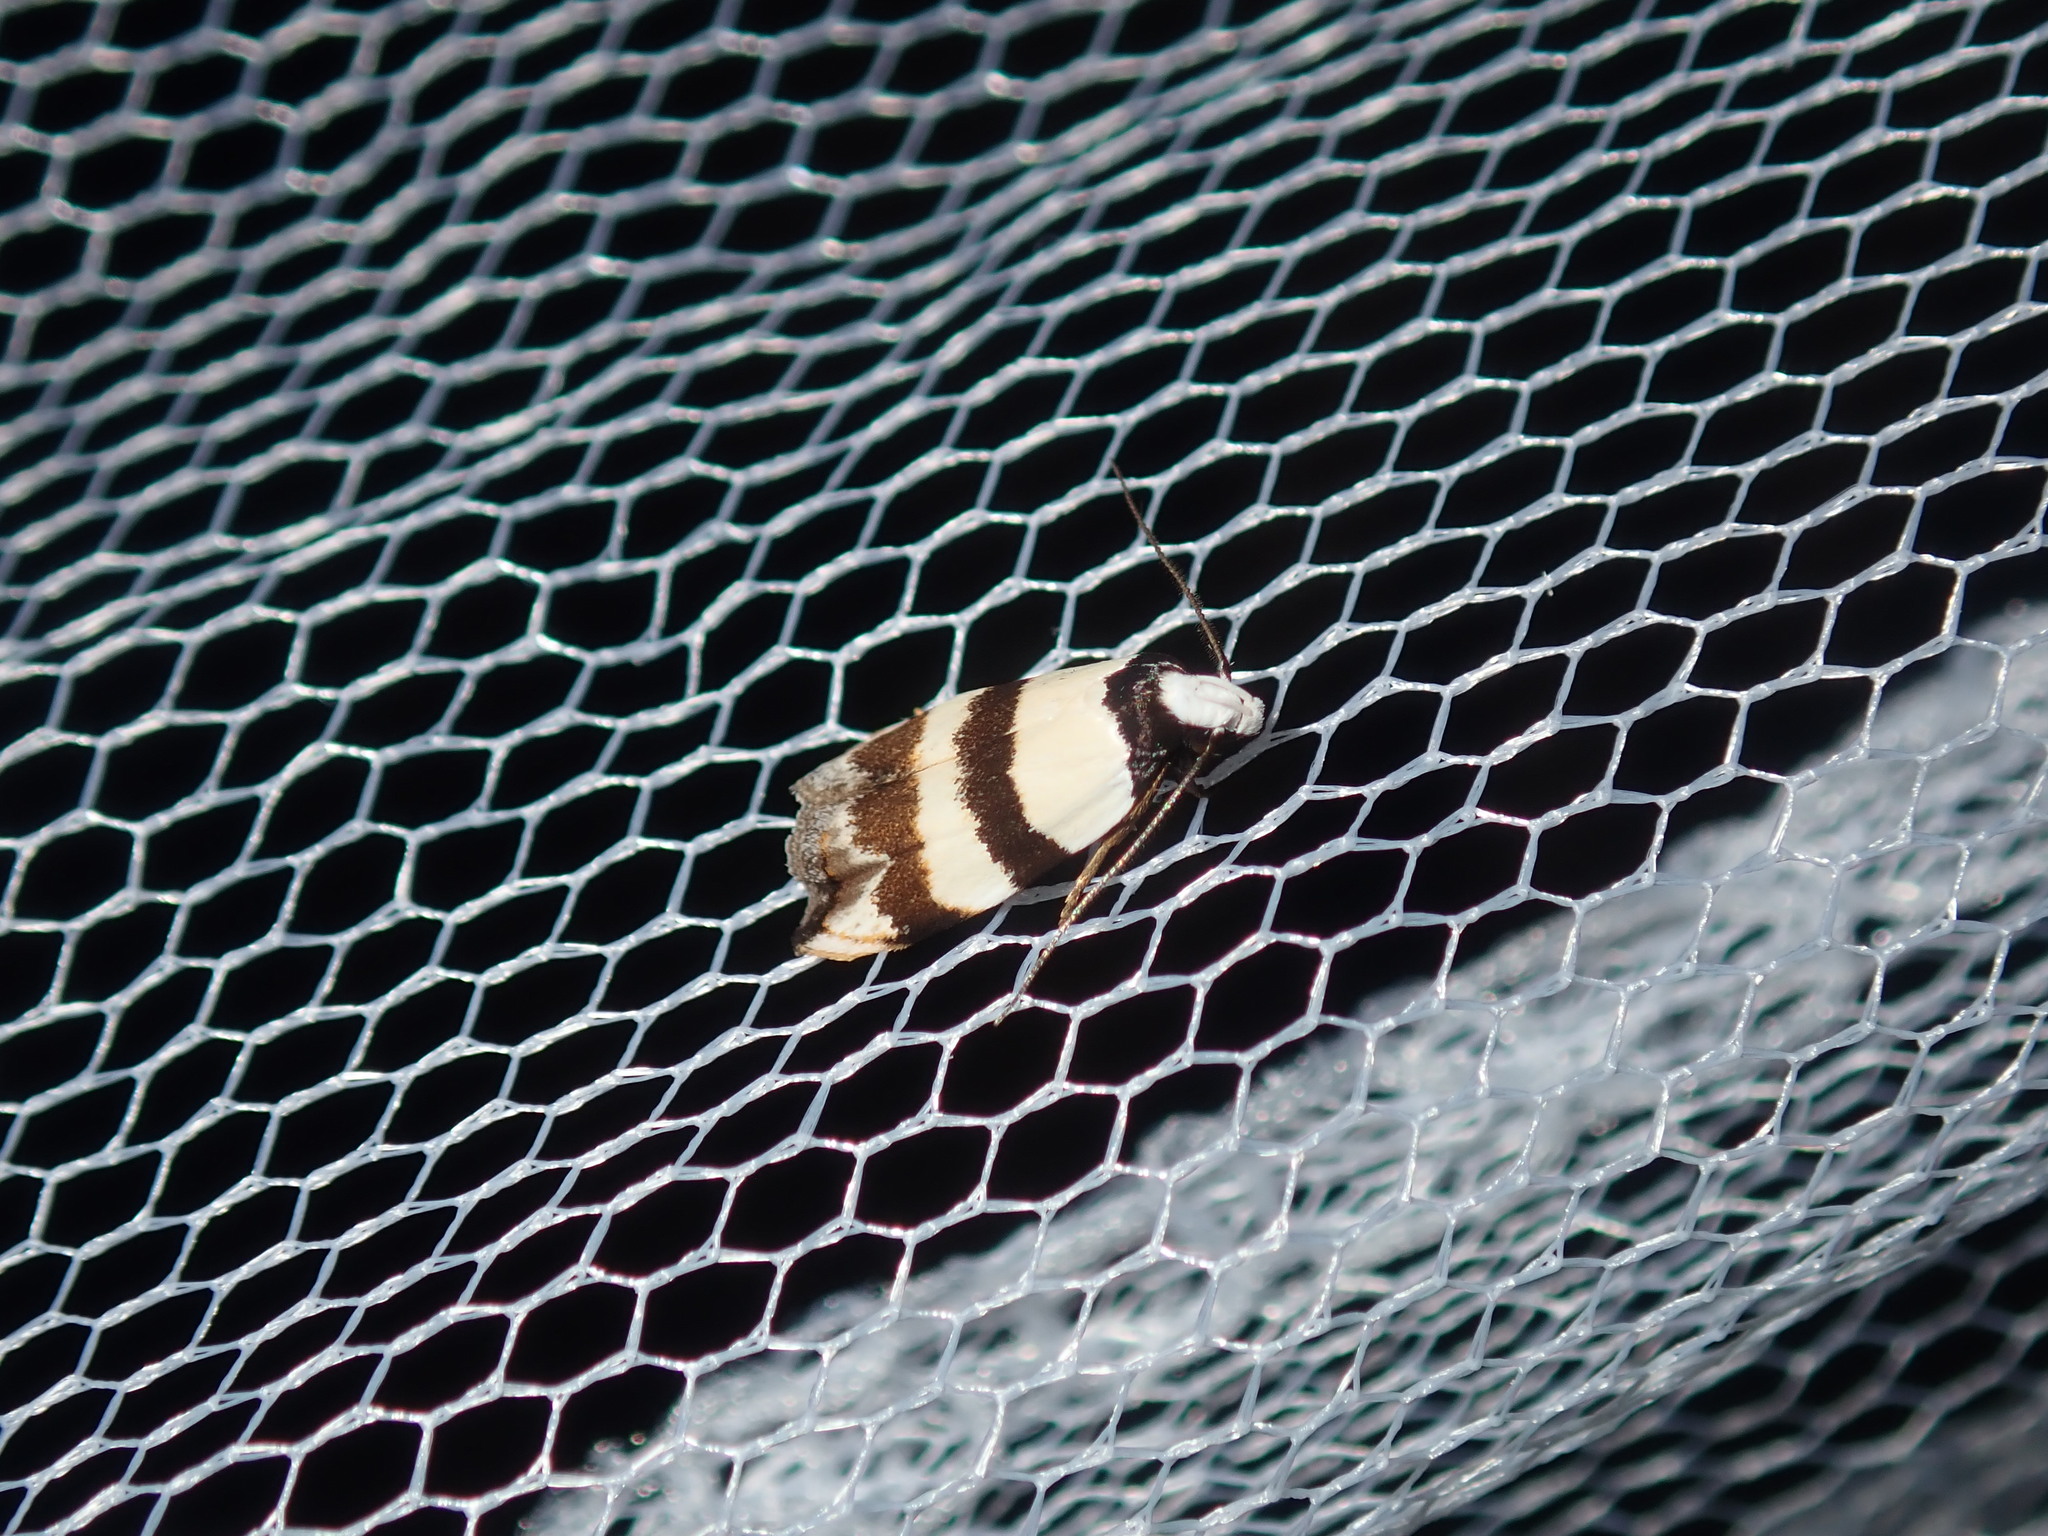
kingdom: Animalia
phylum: Arthropoda
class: Insecta
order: Lepidoptera
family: Oecophoridae
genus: Zonopetala
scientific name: Zonopetala clerota
